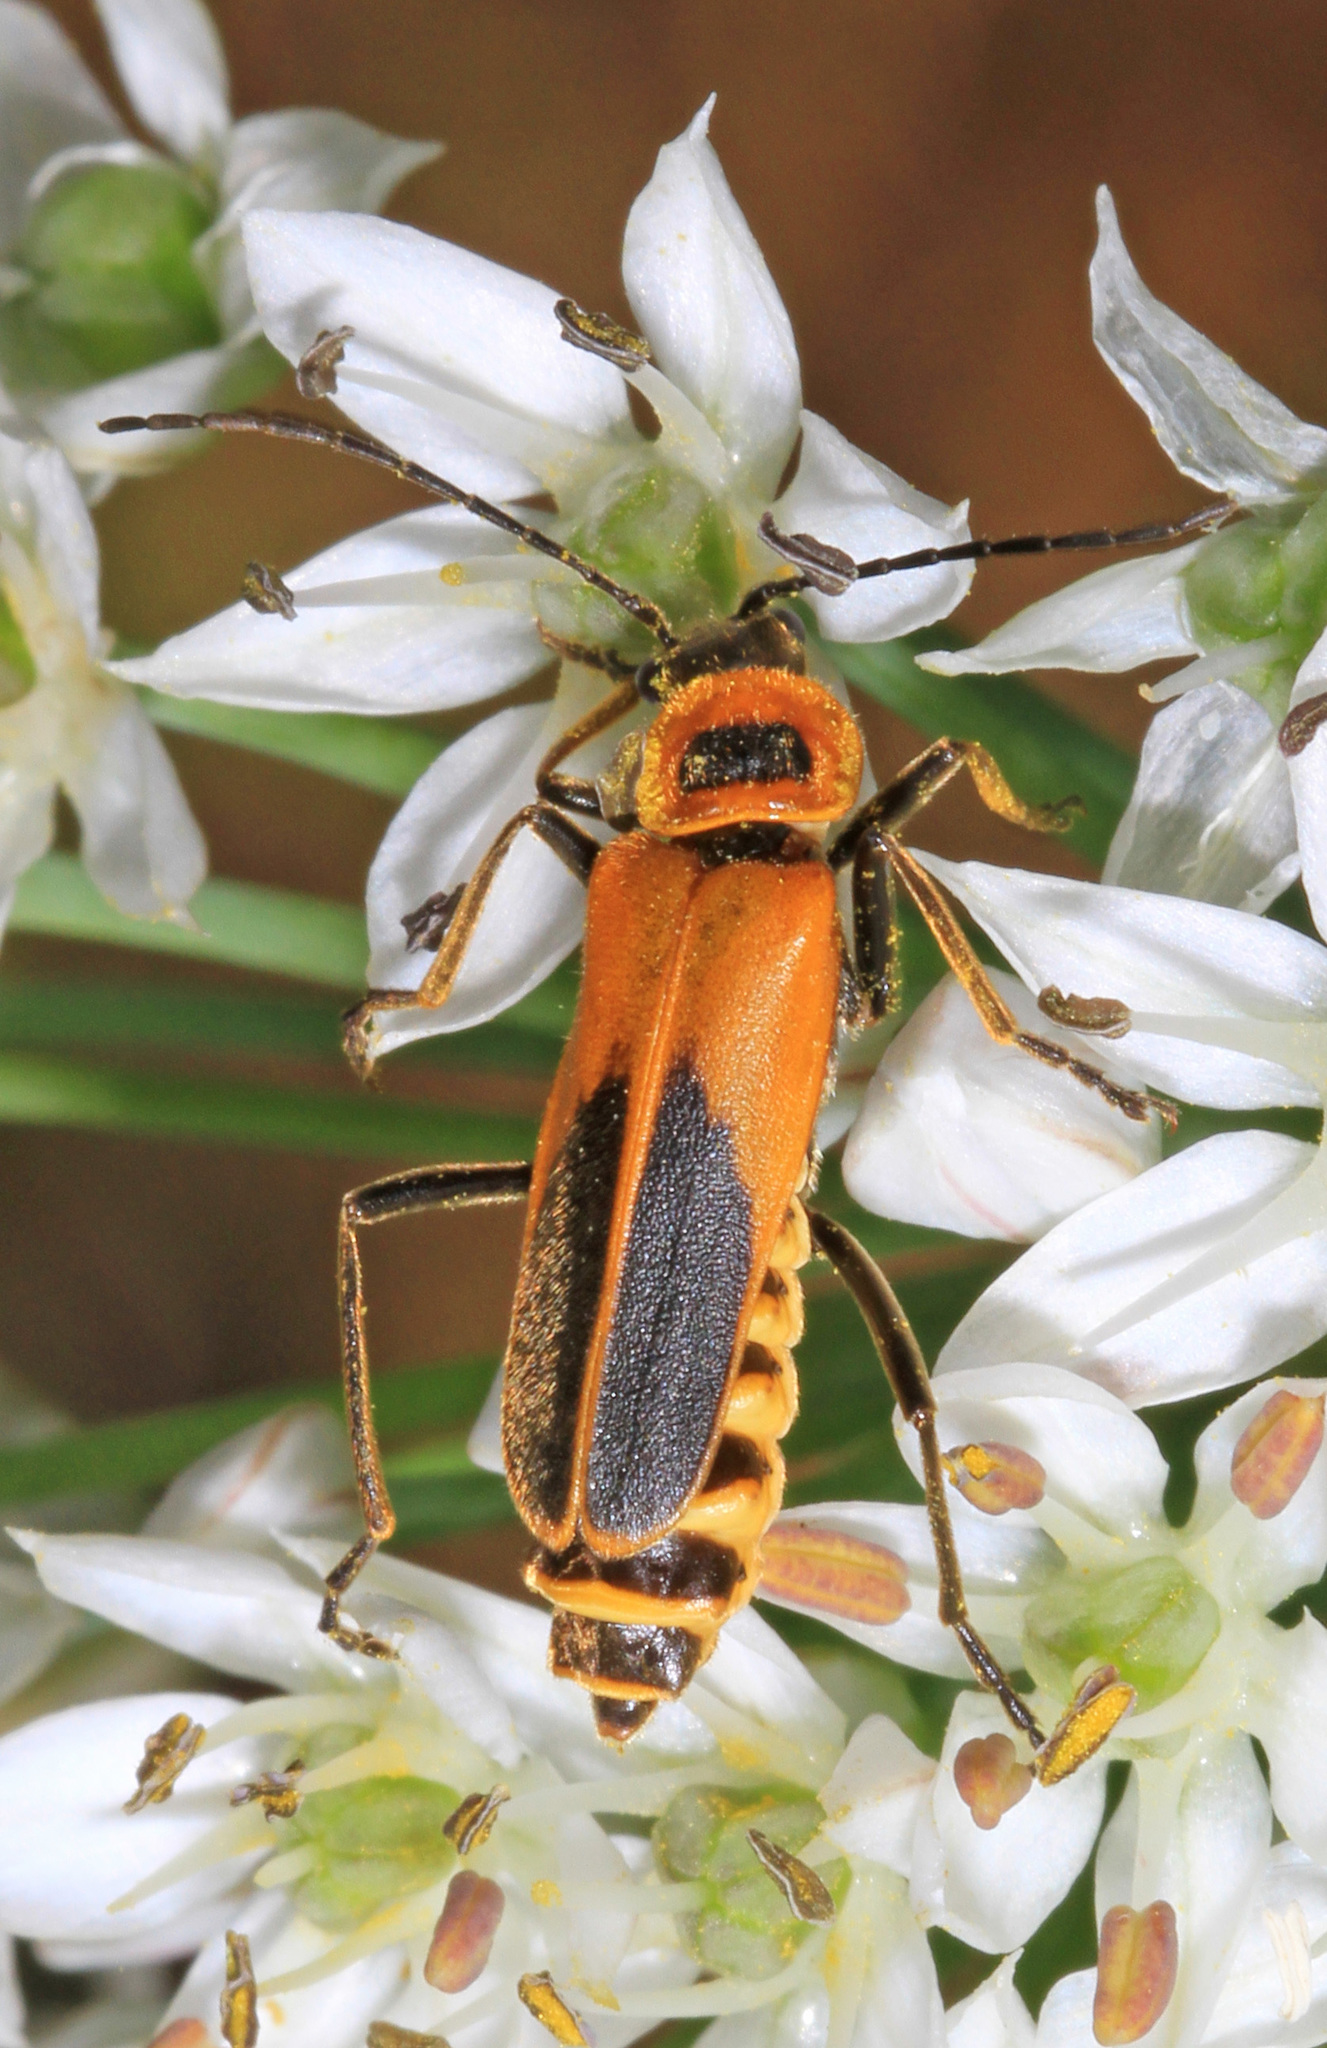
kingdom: Animalia
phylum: Arthropoda
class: Insecta
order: Coleoptera
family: Cantharidae
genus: Chauliognathus
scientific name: Chauliognathus pensylvanicus
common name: Goldenrod soldier beetle
